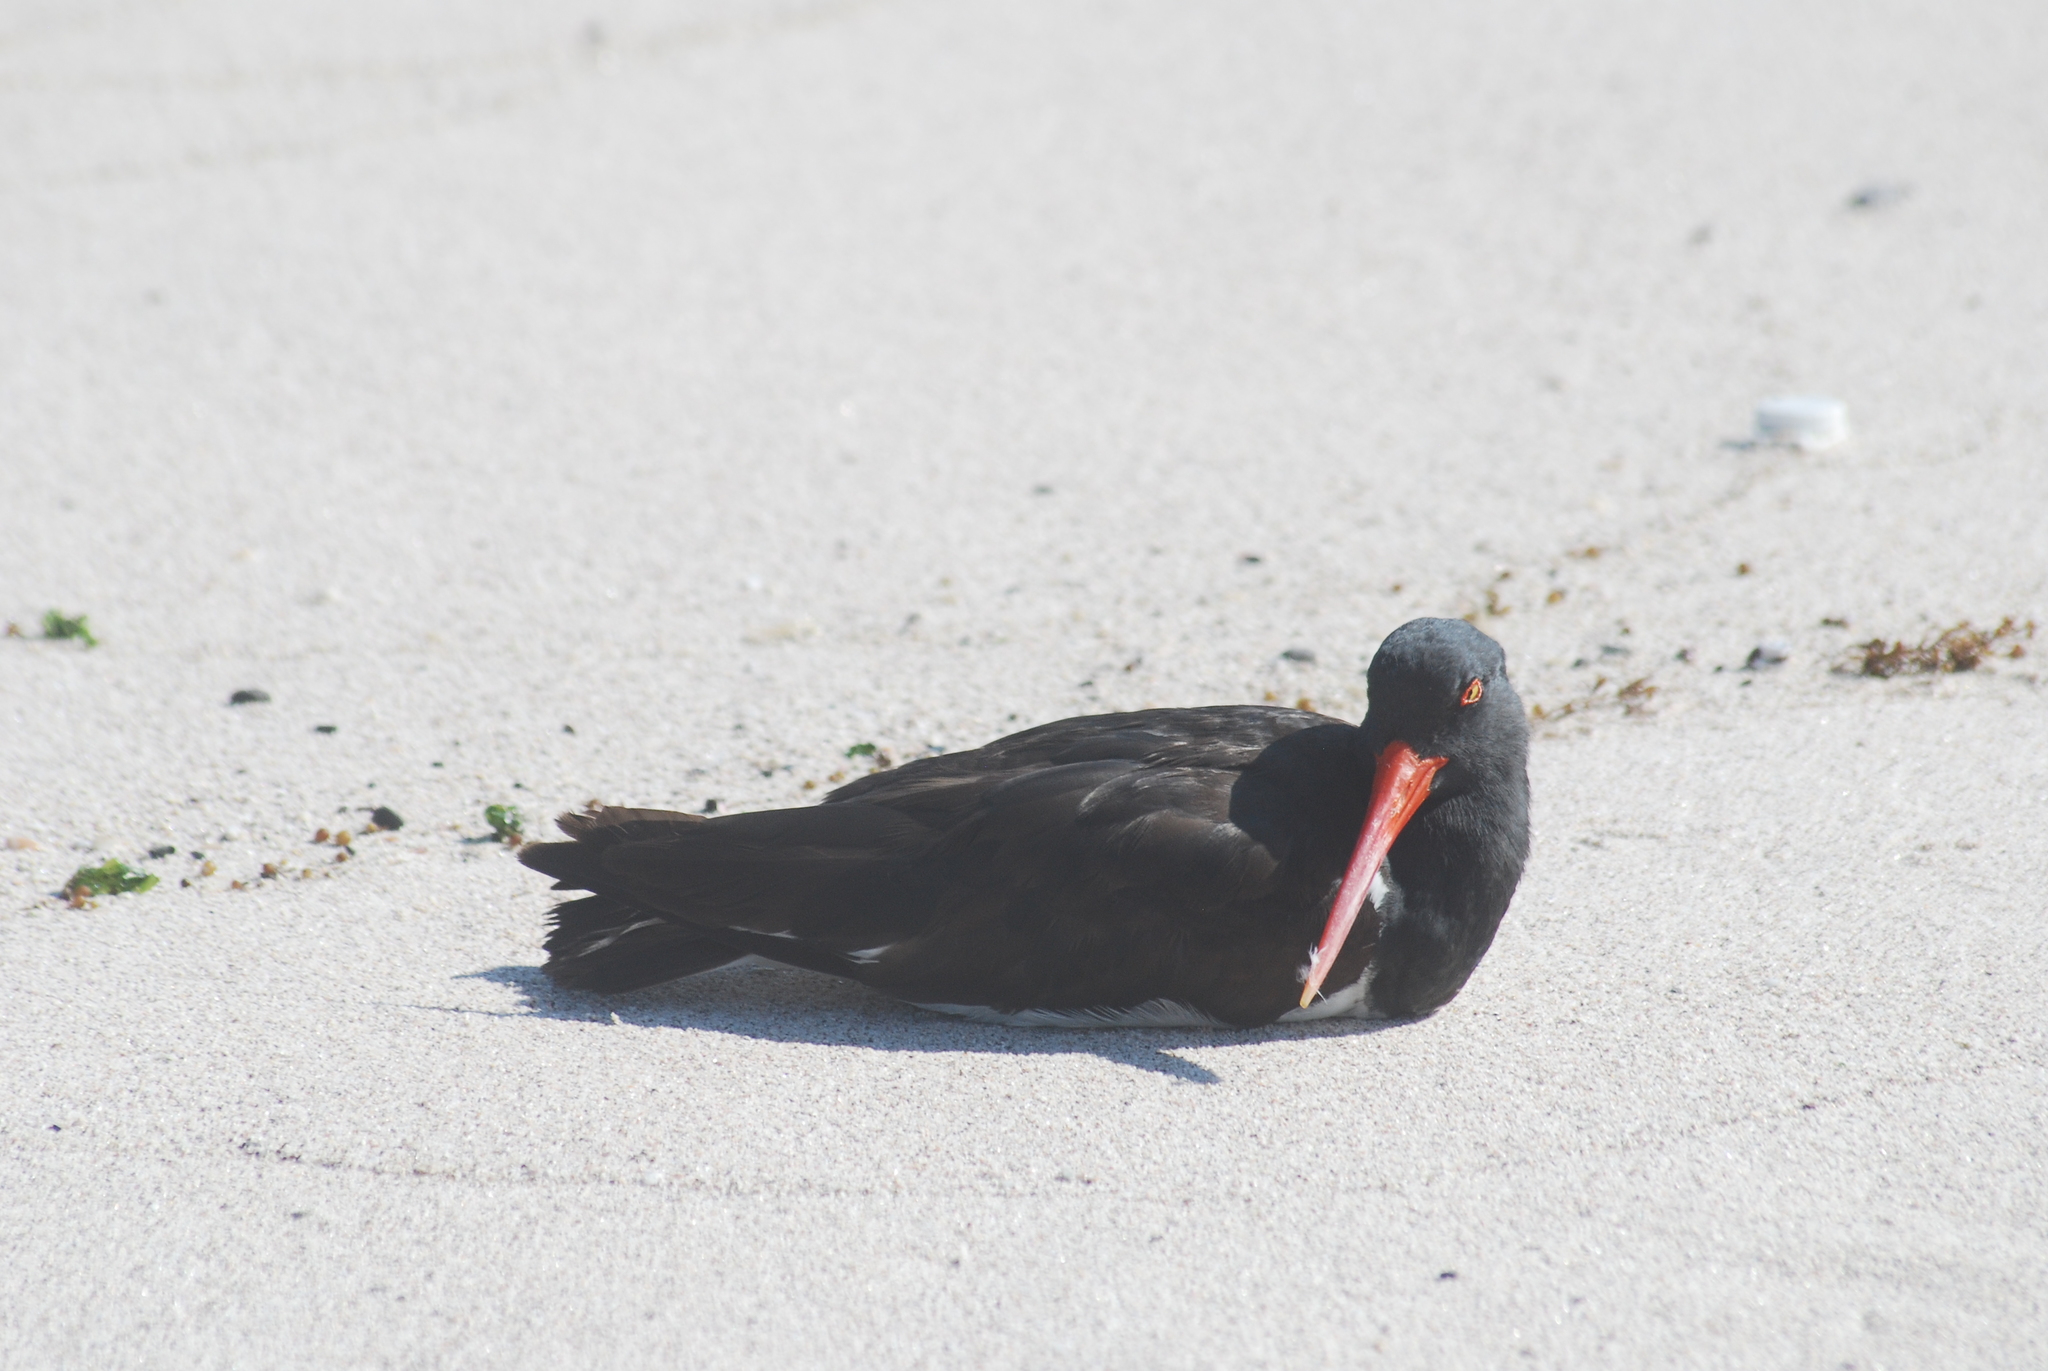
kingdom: Animalia
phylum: Chordata
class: Aves
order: Charadriiformes
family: Haematopodidae
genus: Haematopus
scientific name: Haematopus palliatus
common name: American oystercatcher
